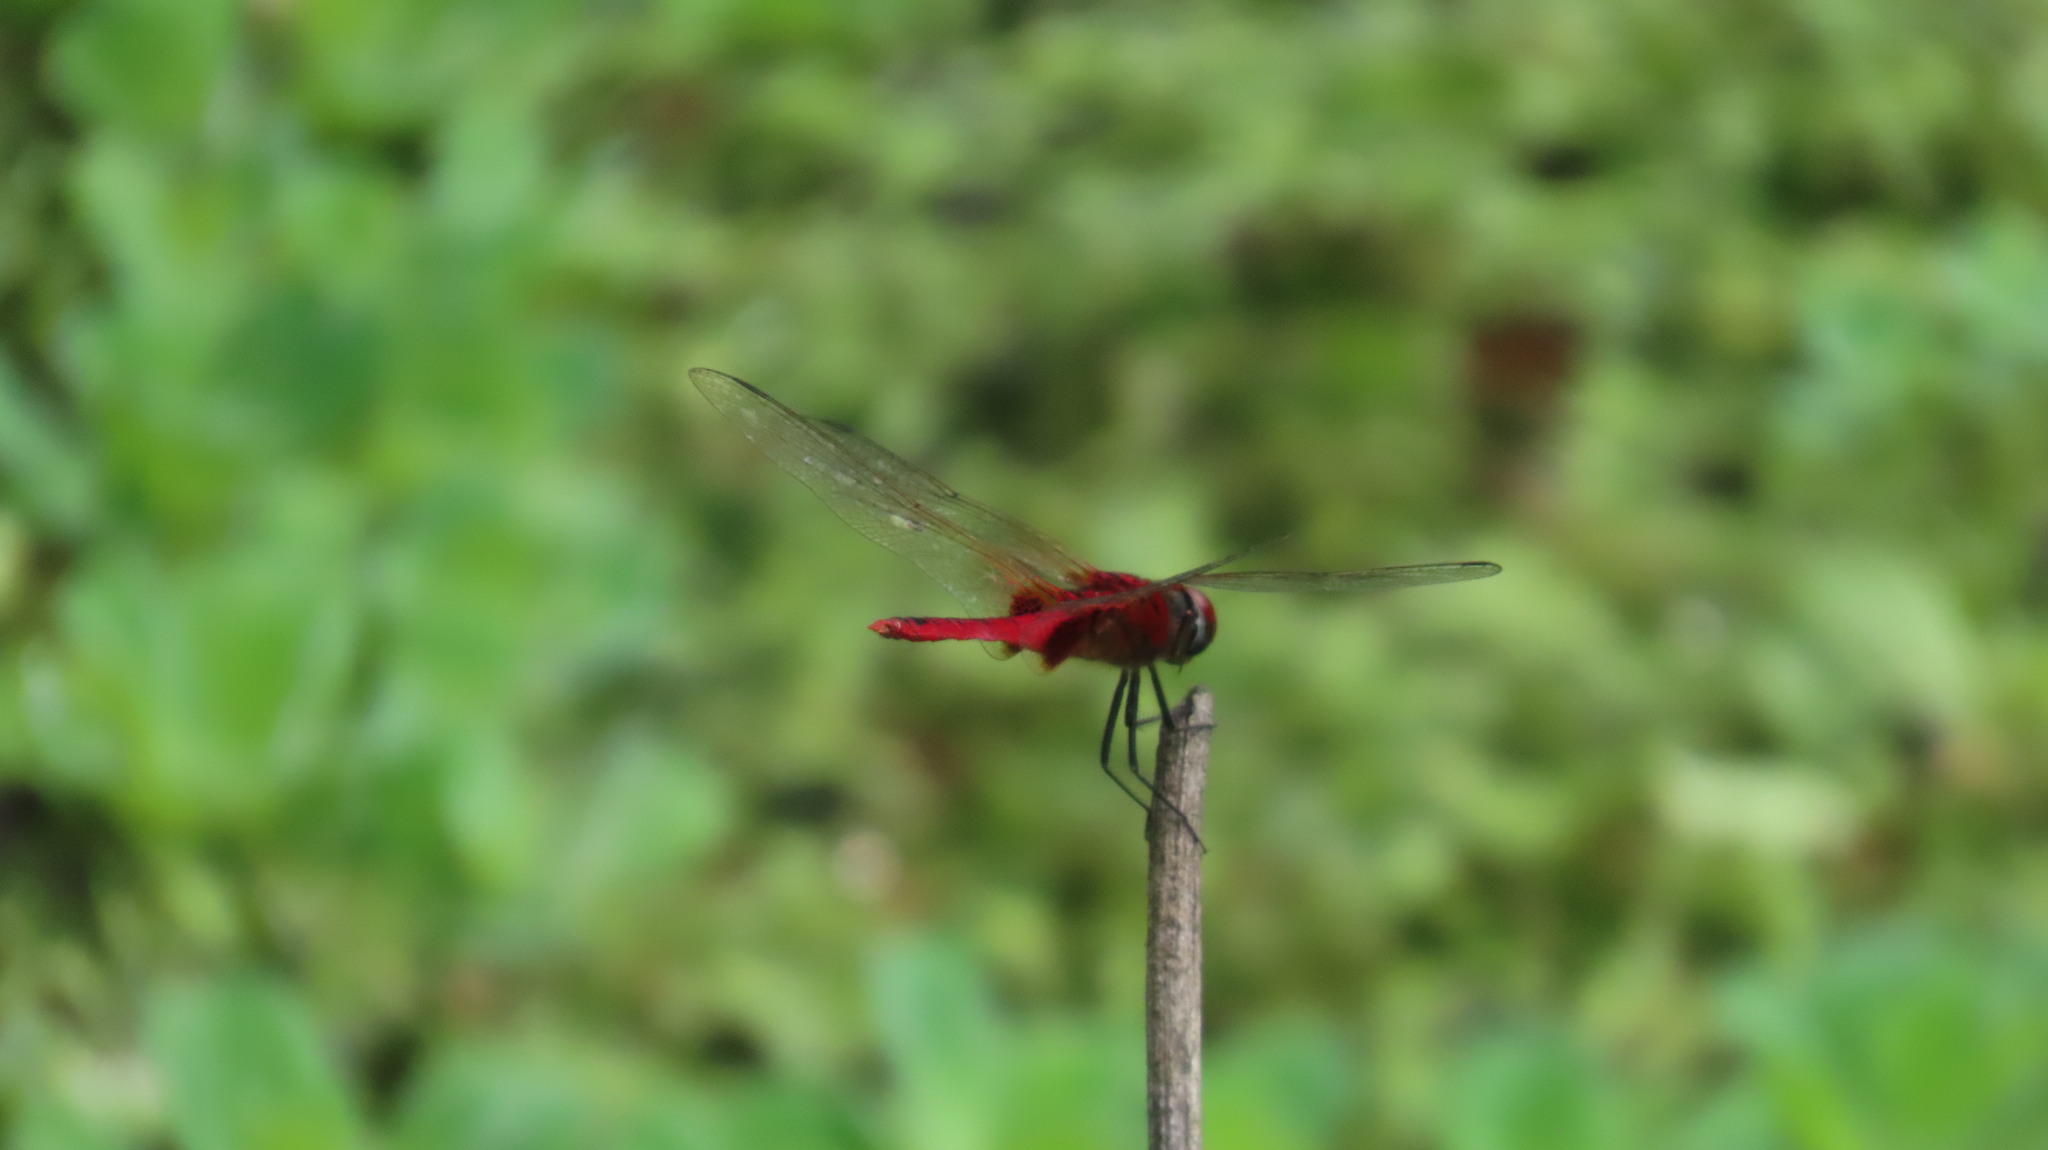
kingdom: Animalia
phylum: Arthropoda
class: Insecta
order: Odonata
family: Libellulidae
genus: Urothemis
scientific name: Urothemis signata
